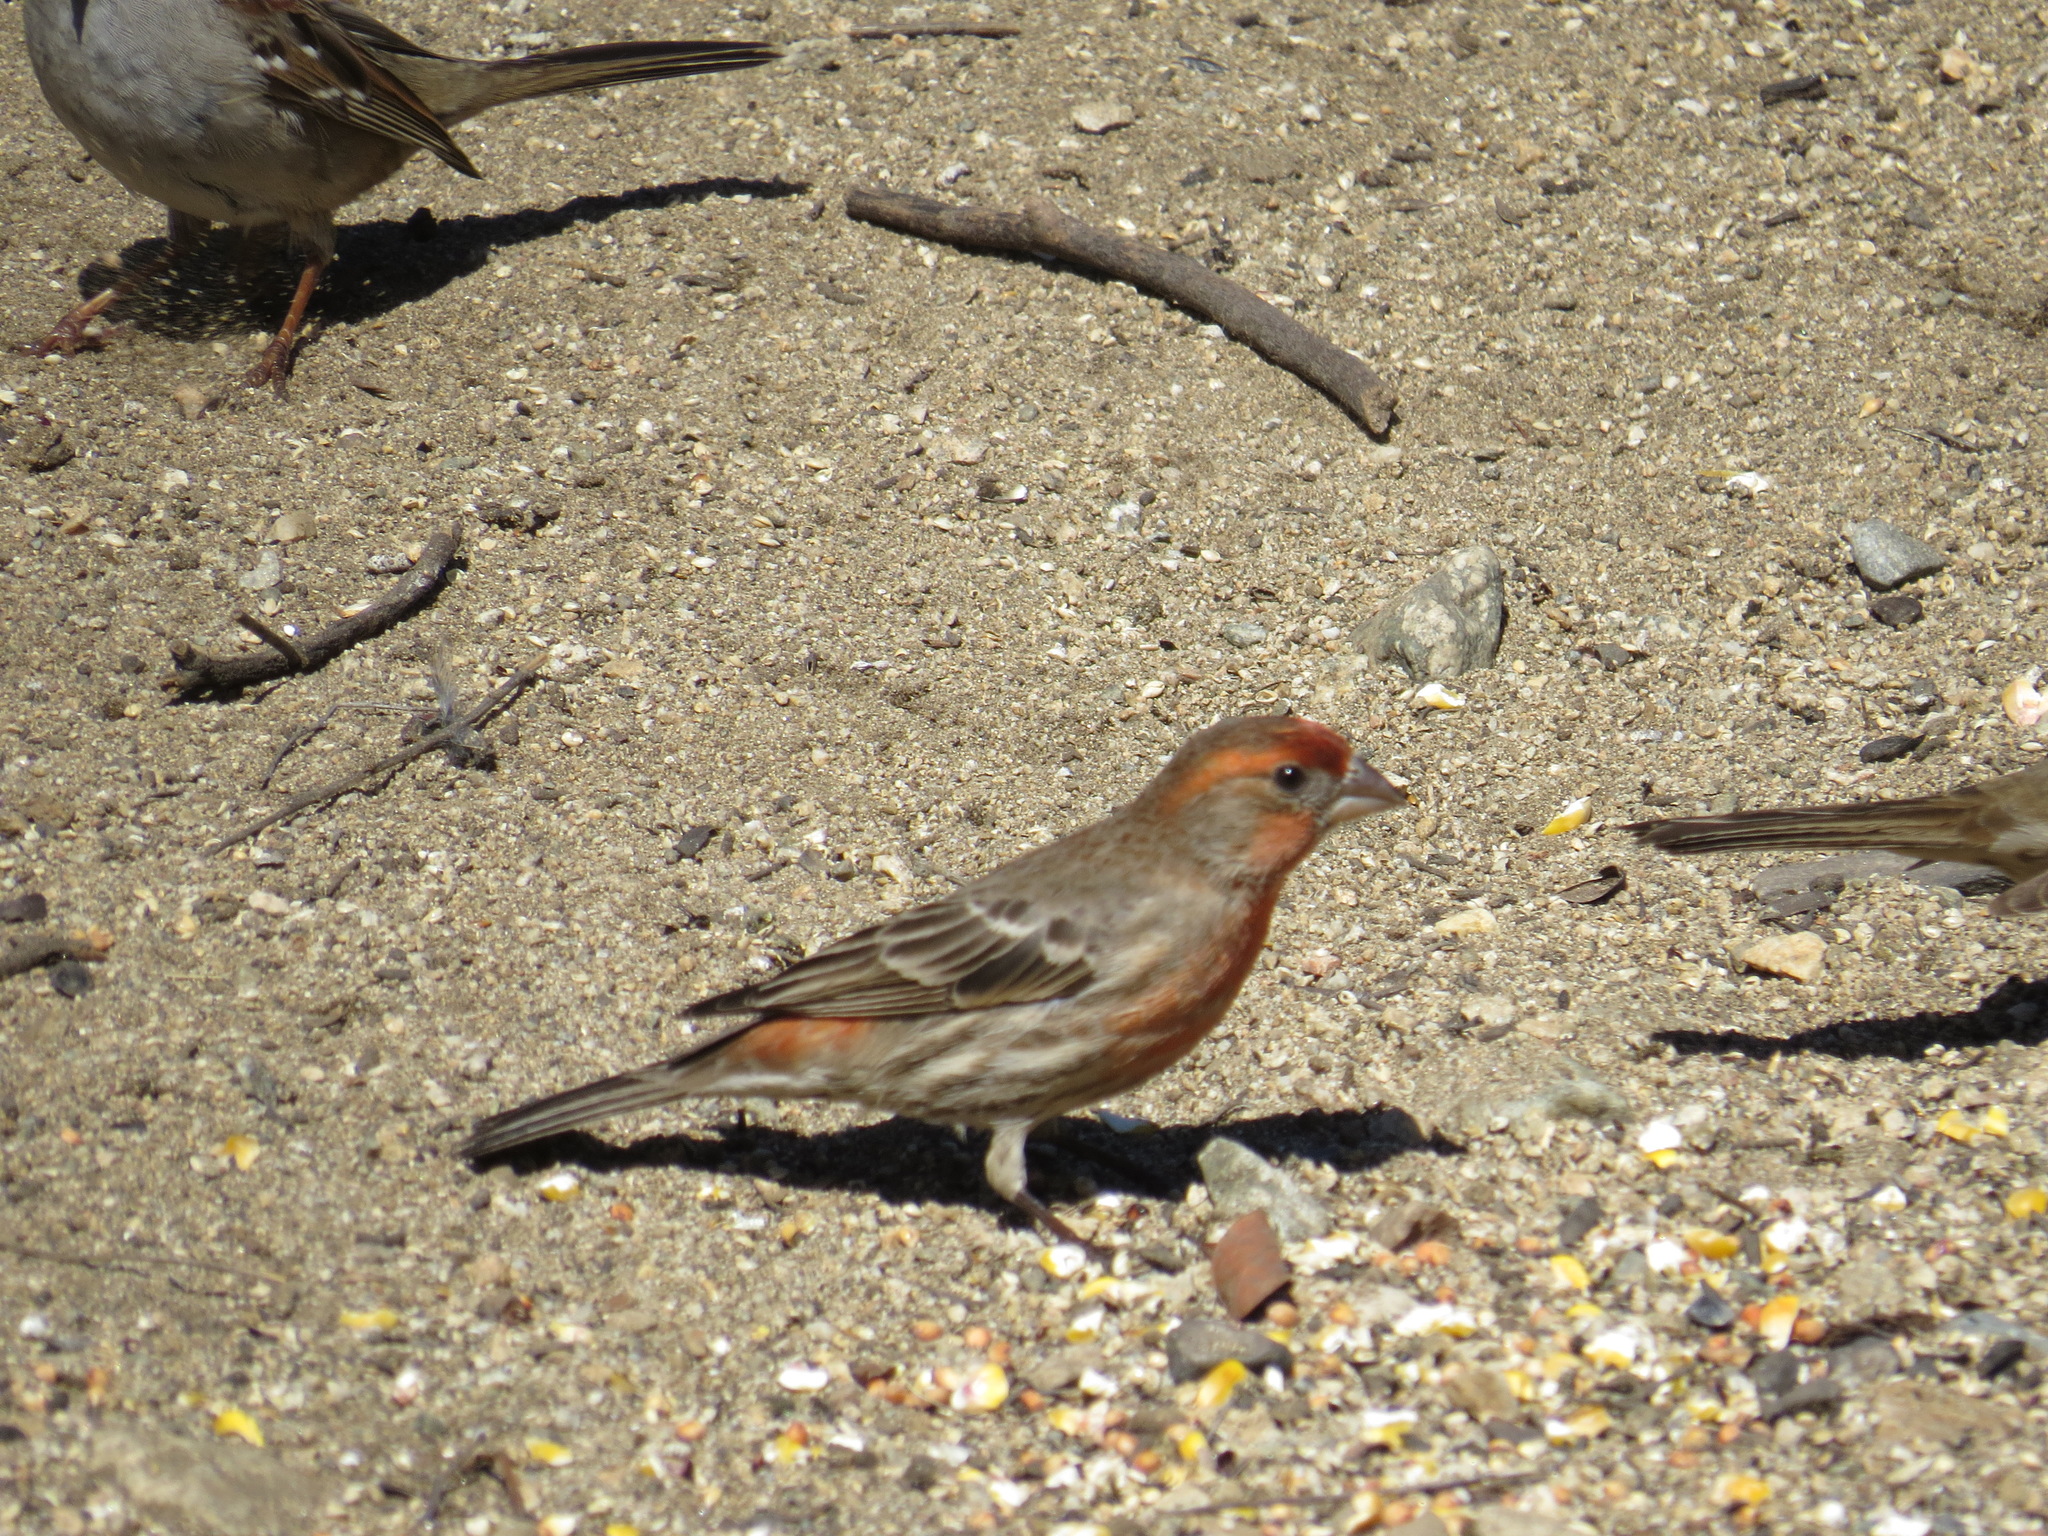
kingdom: Animalia
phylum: Chordata
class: Aves
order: Passeriformes
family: Fringillidae
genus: Haemorhous
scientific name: Haemorhous mexicanus
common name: House finch
